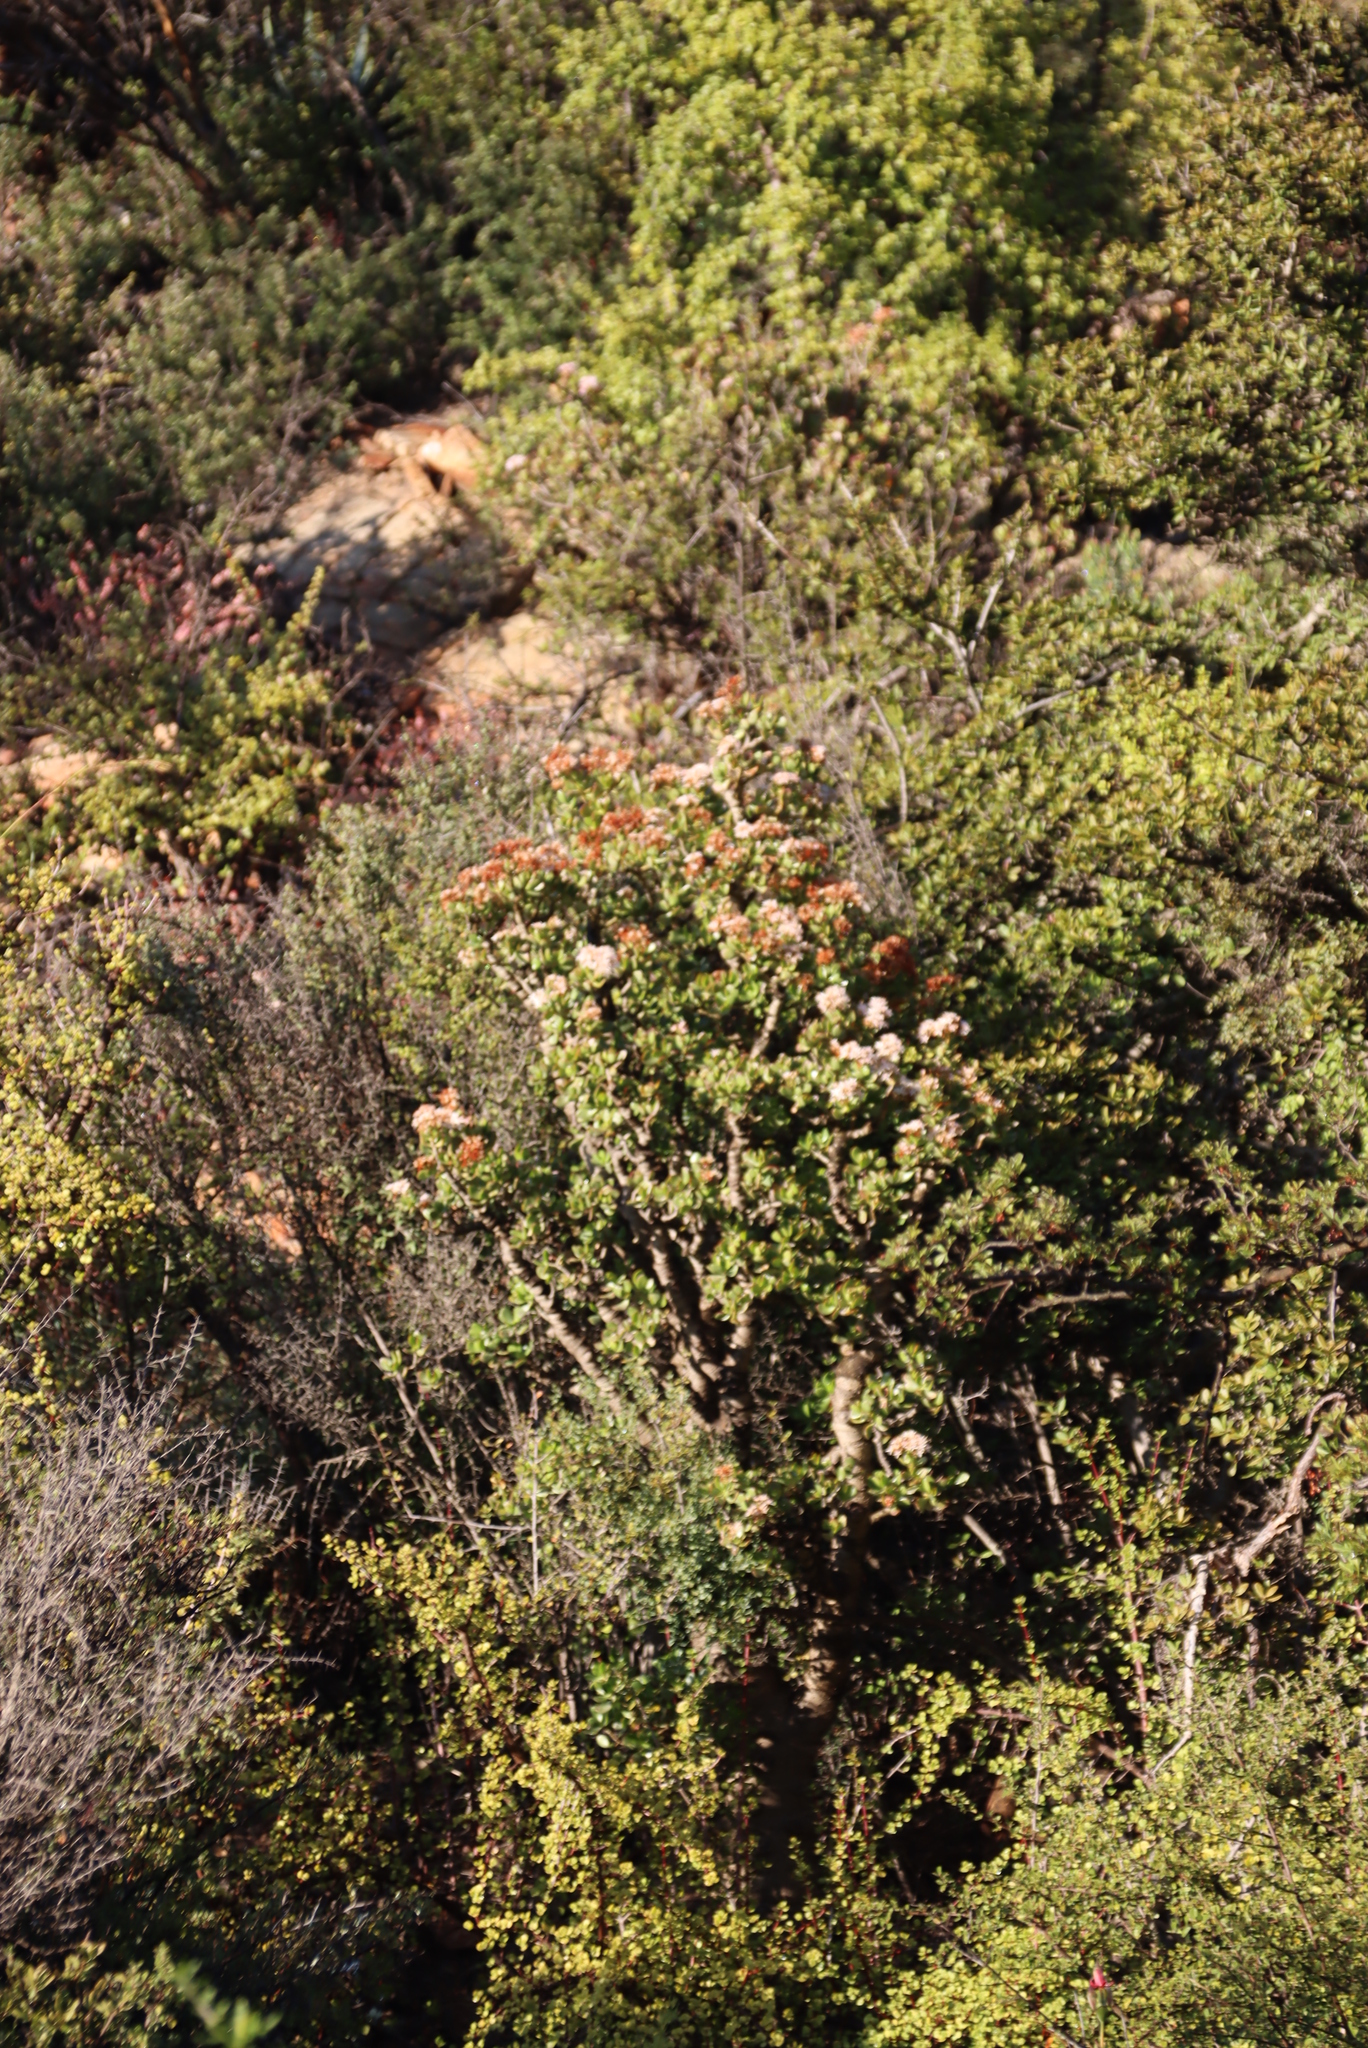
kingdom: Plantae
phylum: Tracheophyta
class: Magnoliopsida
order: Saxifragales
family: Crassulaceae
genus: Crassula
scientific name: Crassula ovata
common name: Jade plant
